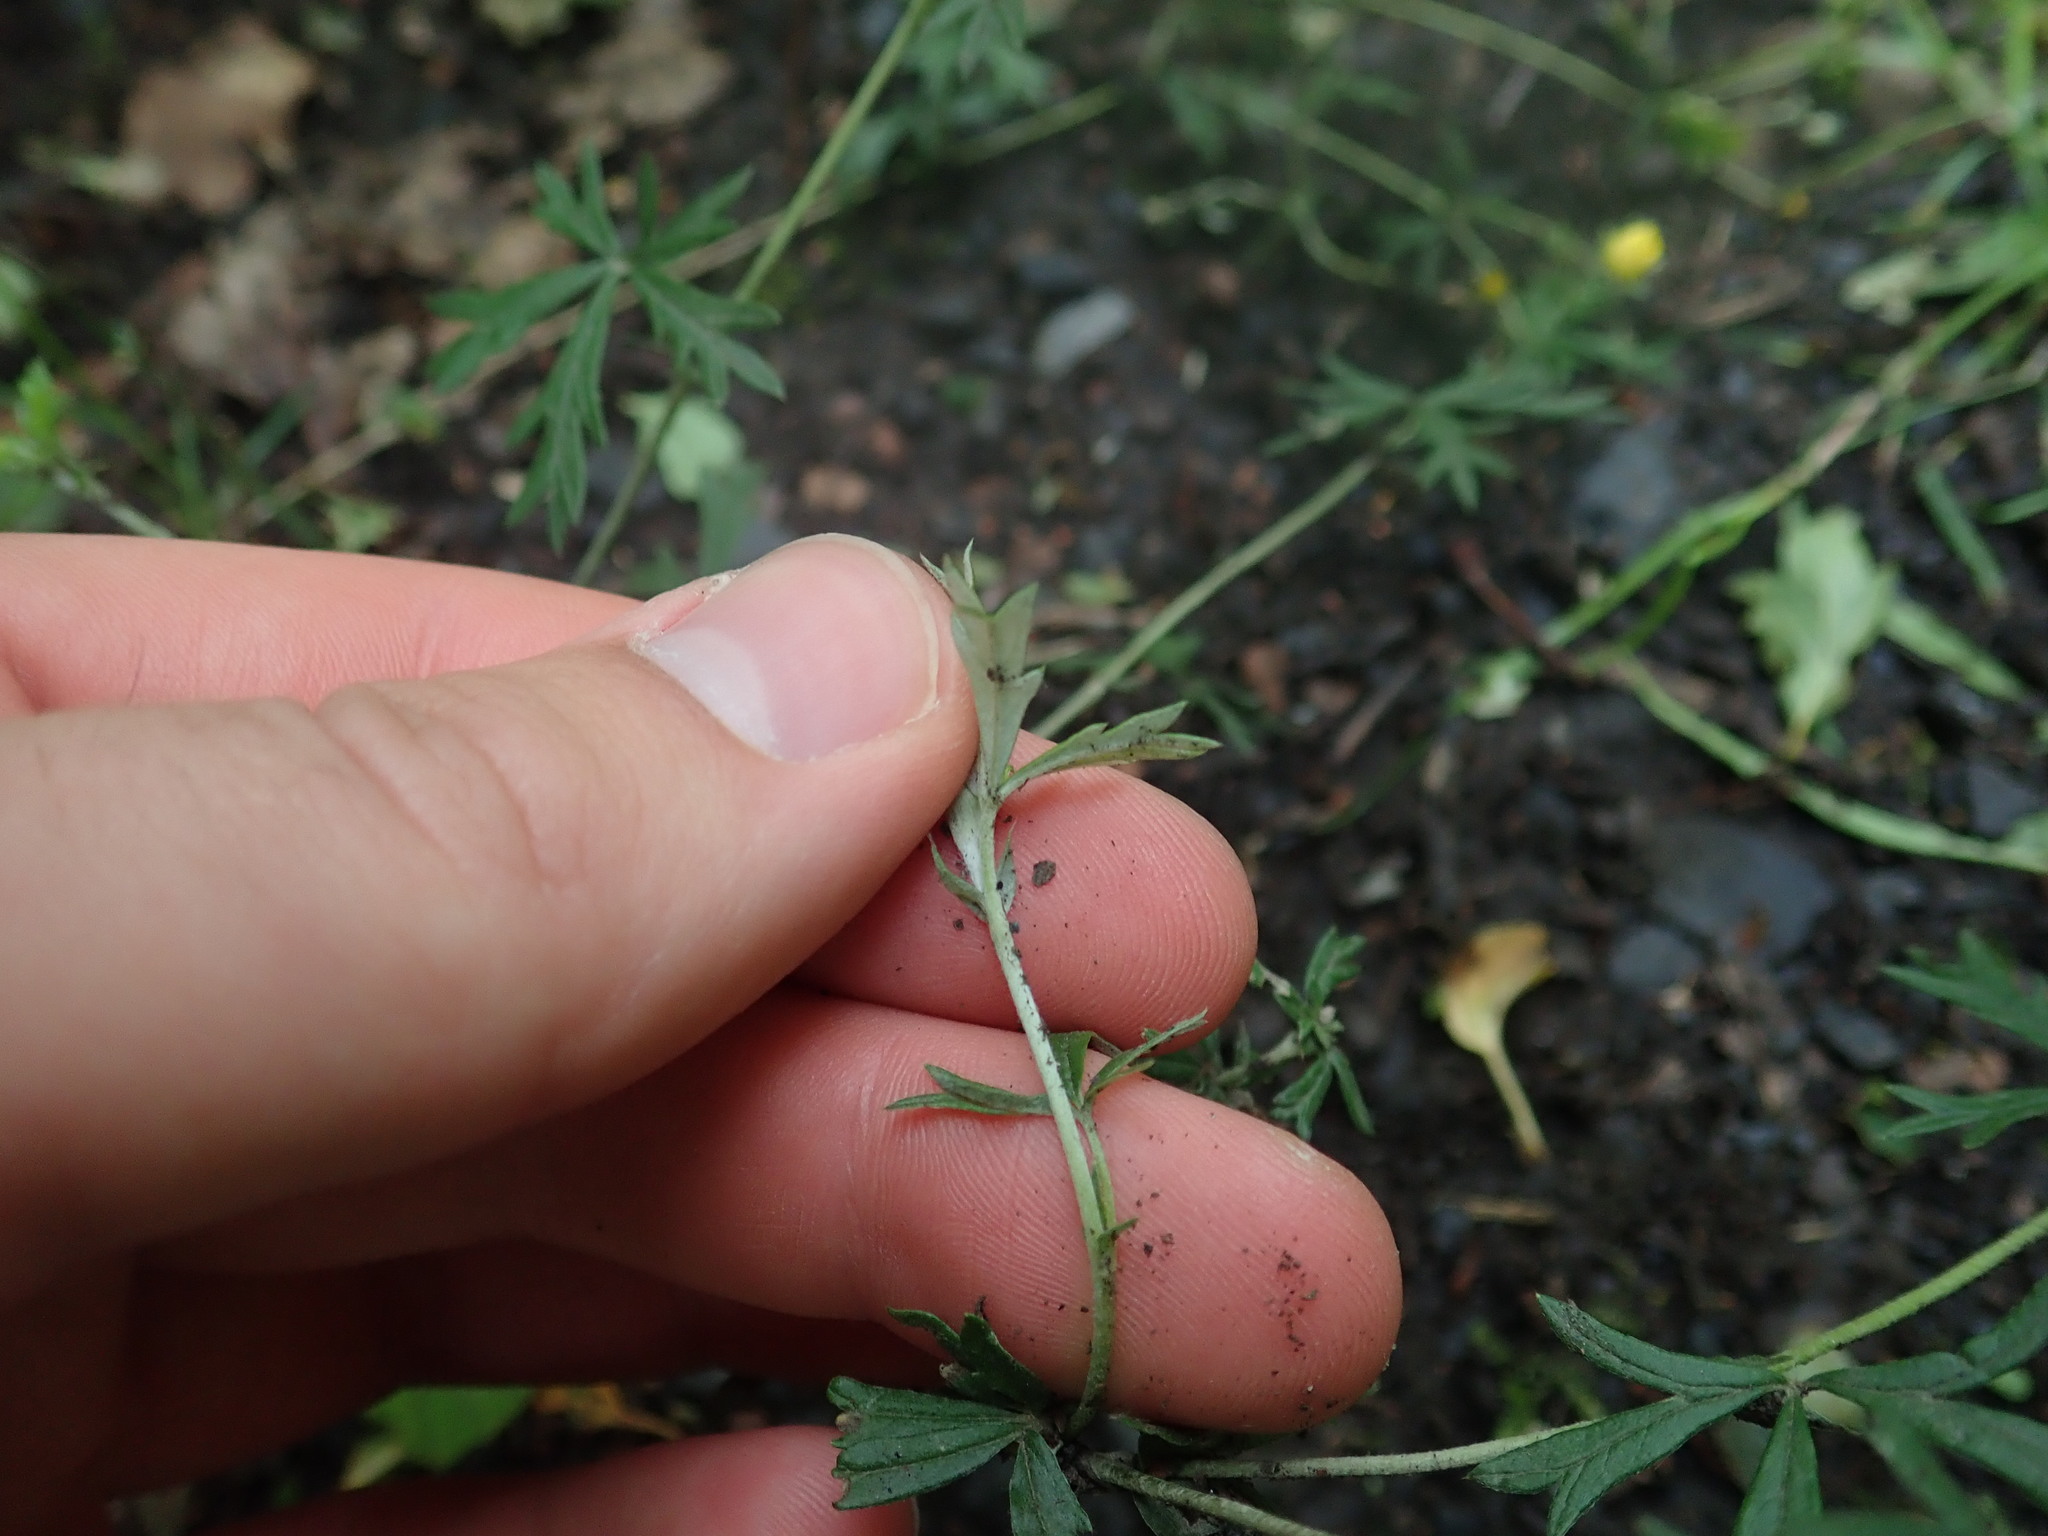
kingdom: Plantae
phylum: Tracheophyta
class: Magnoliopsida
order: Rosales
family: Rosaceae
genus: Potentilla
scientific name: Potentilla argentea
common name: Hoary cinquefoil
